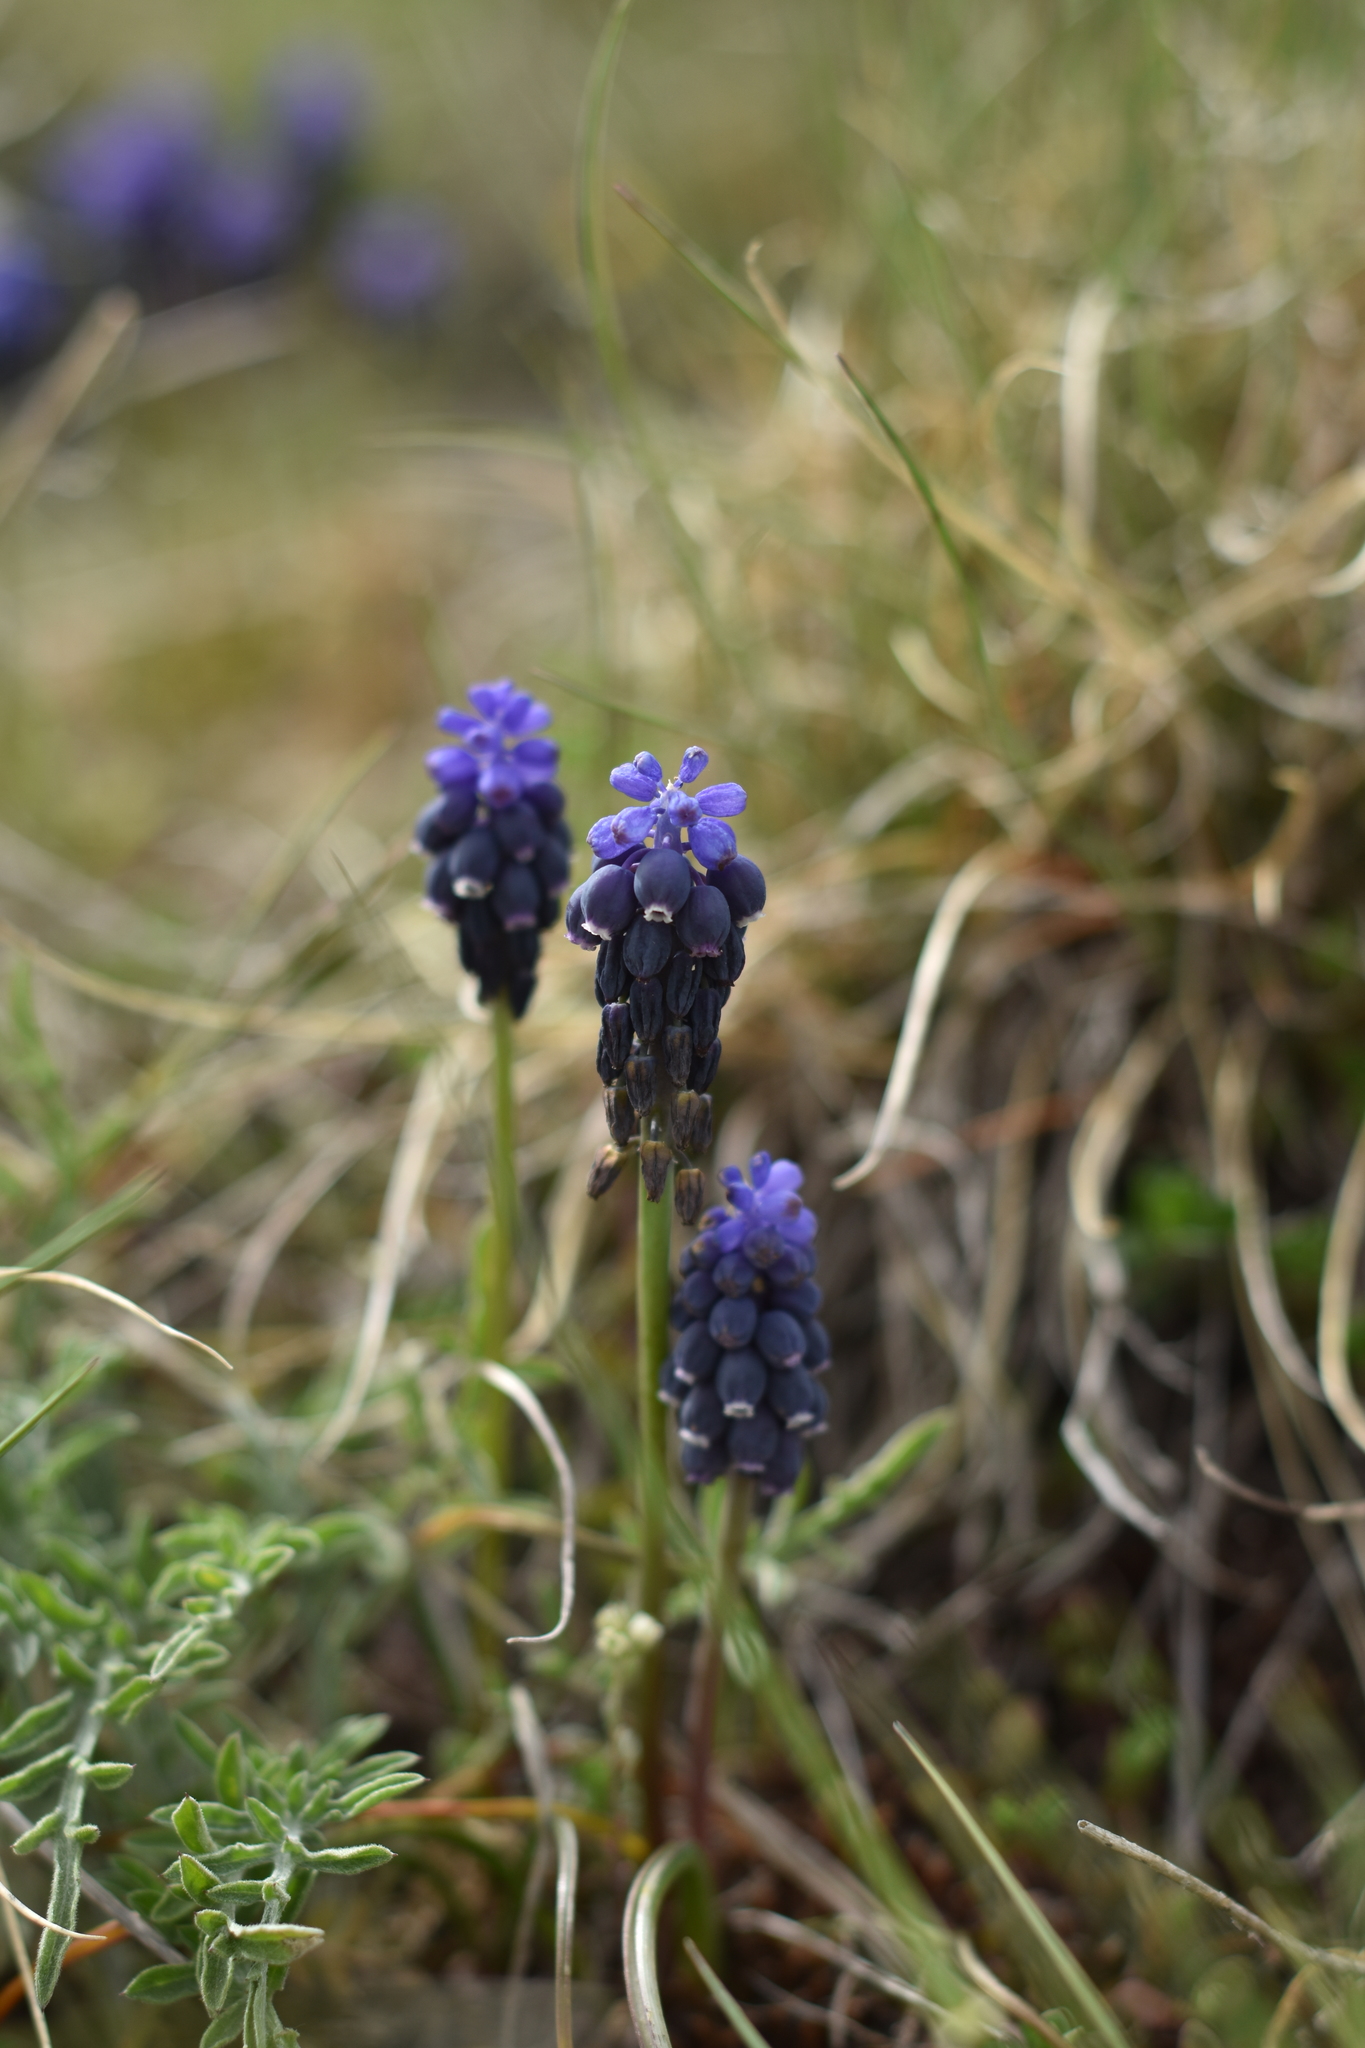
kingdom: Plantae
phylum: Tracheophyta
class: Liliopsida
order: Asparagales
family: Asparagaceae
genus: Muscari
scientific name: Muscari neglectum
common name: Grape-hyacinth
